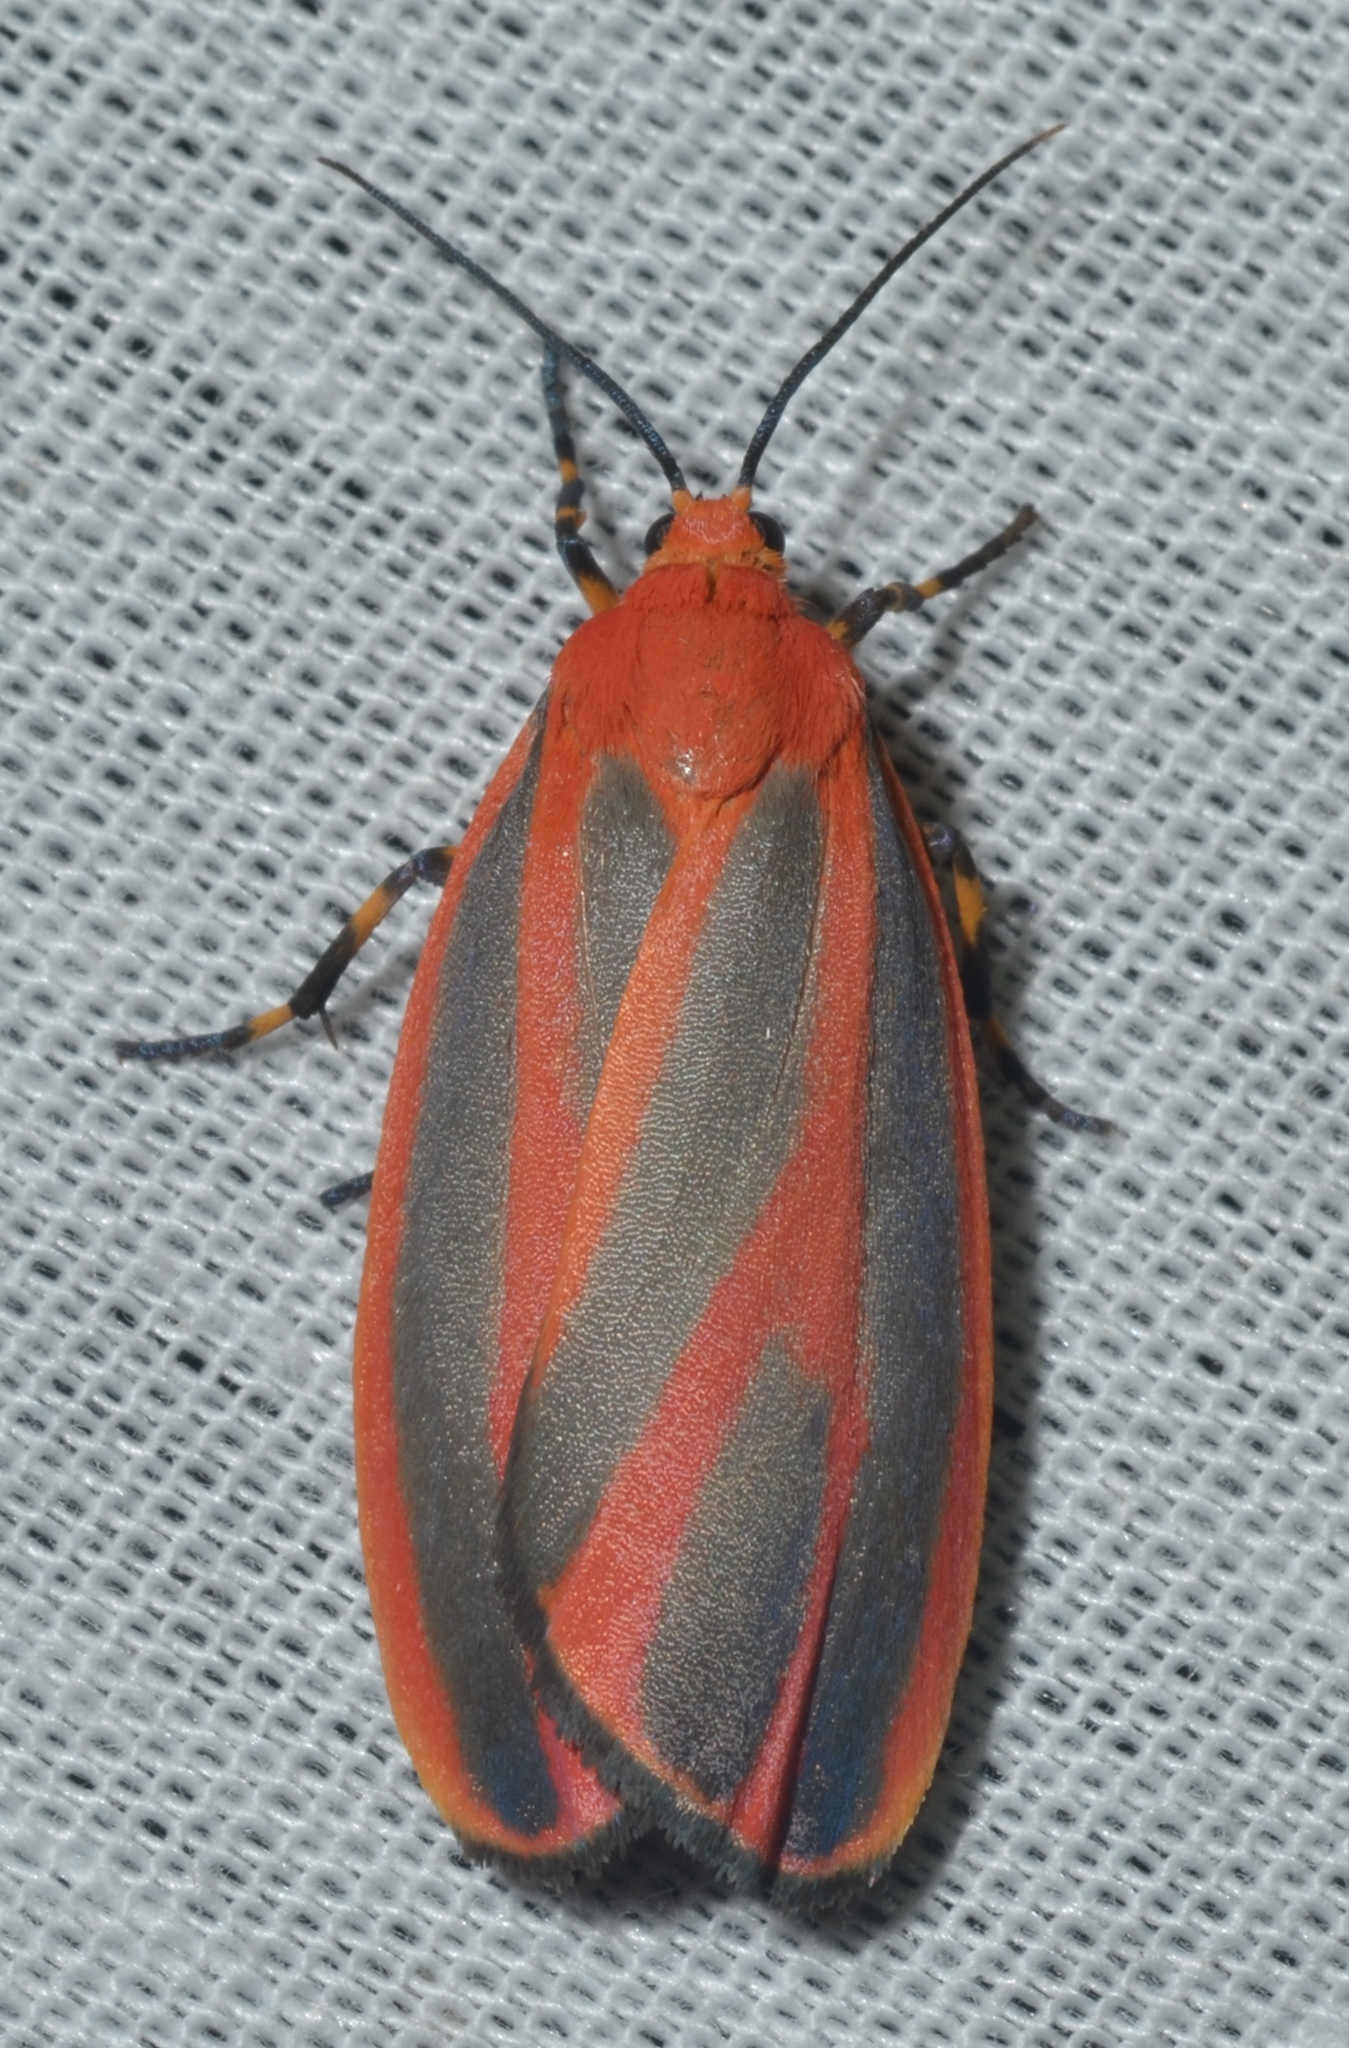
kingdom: Animalia
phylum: Arthropoda
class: Insecta
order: Lepidoptera
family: Erebidae
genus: Hypoprepia
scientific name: Hypoprepia miniata
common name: Scarlet-winged lichen moth
